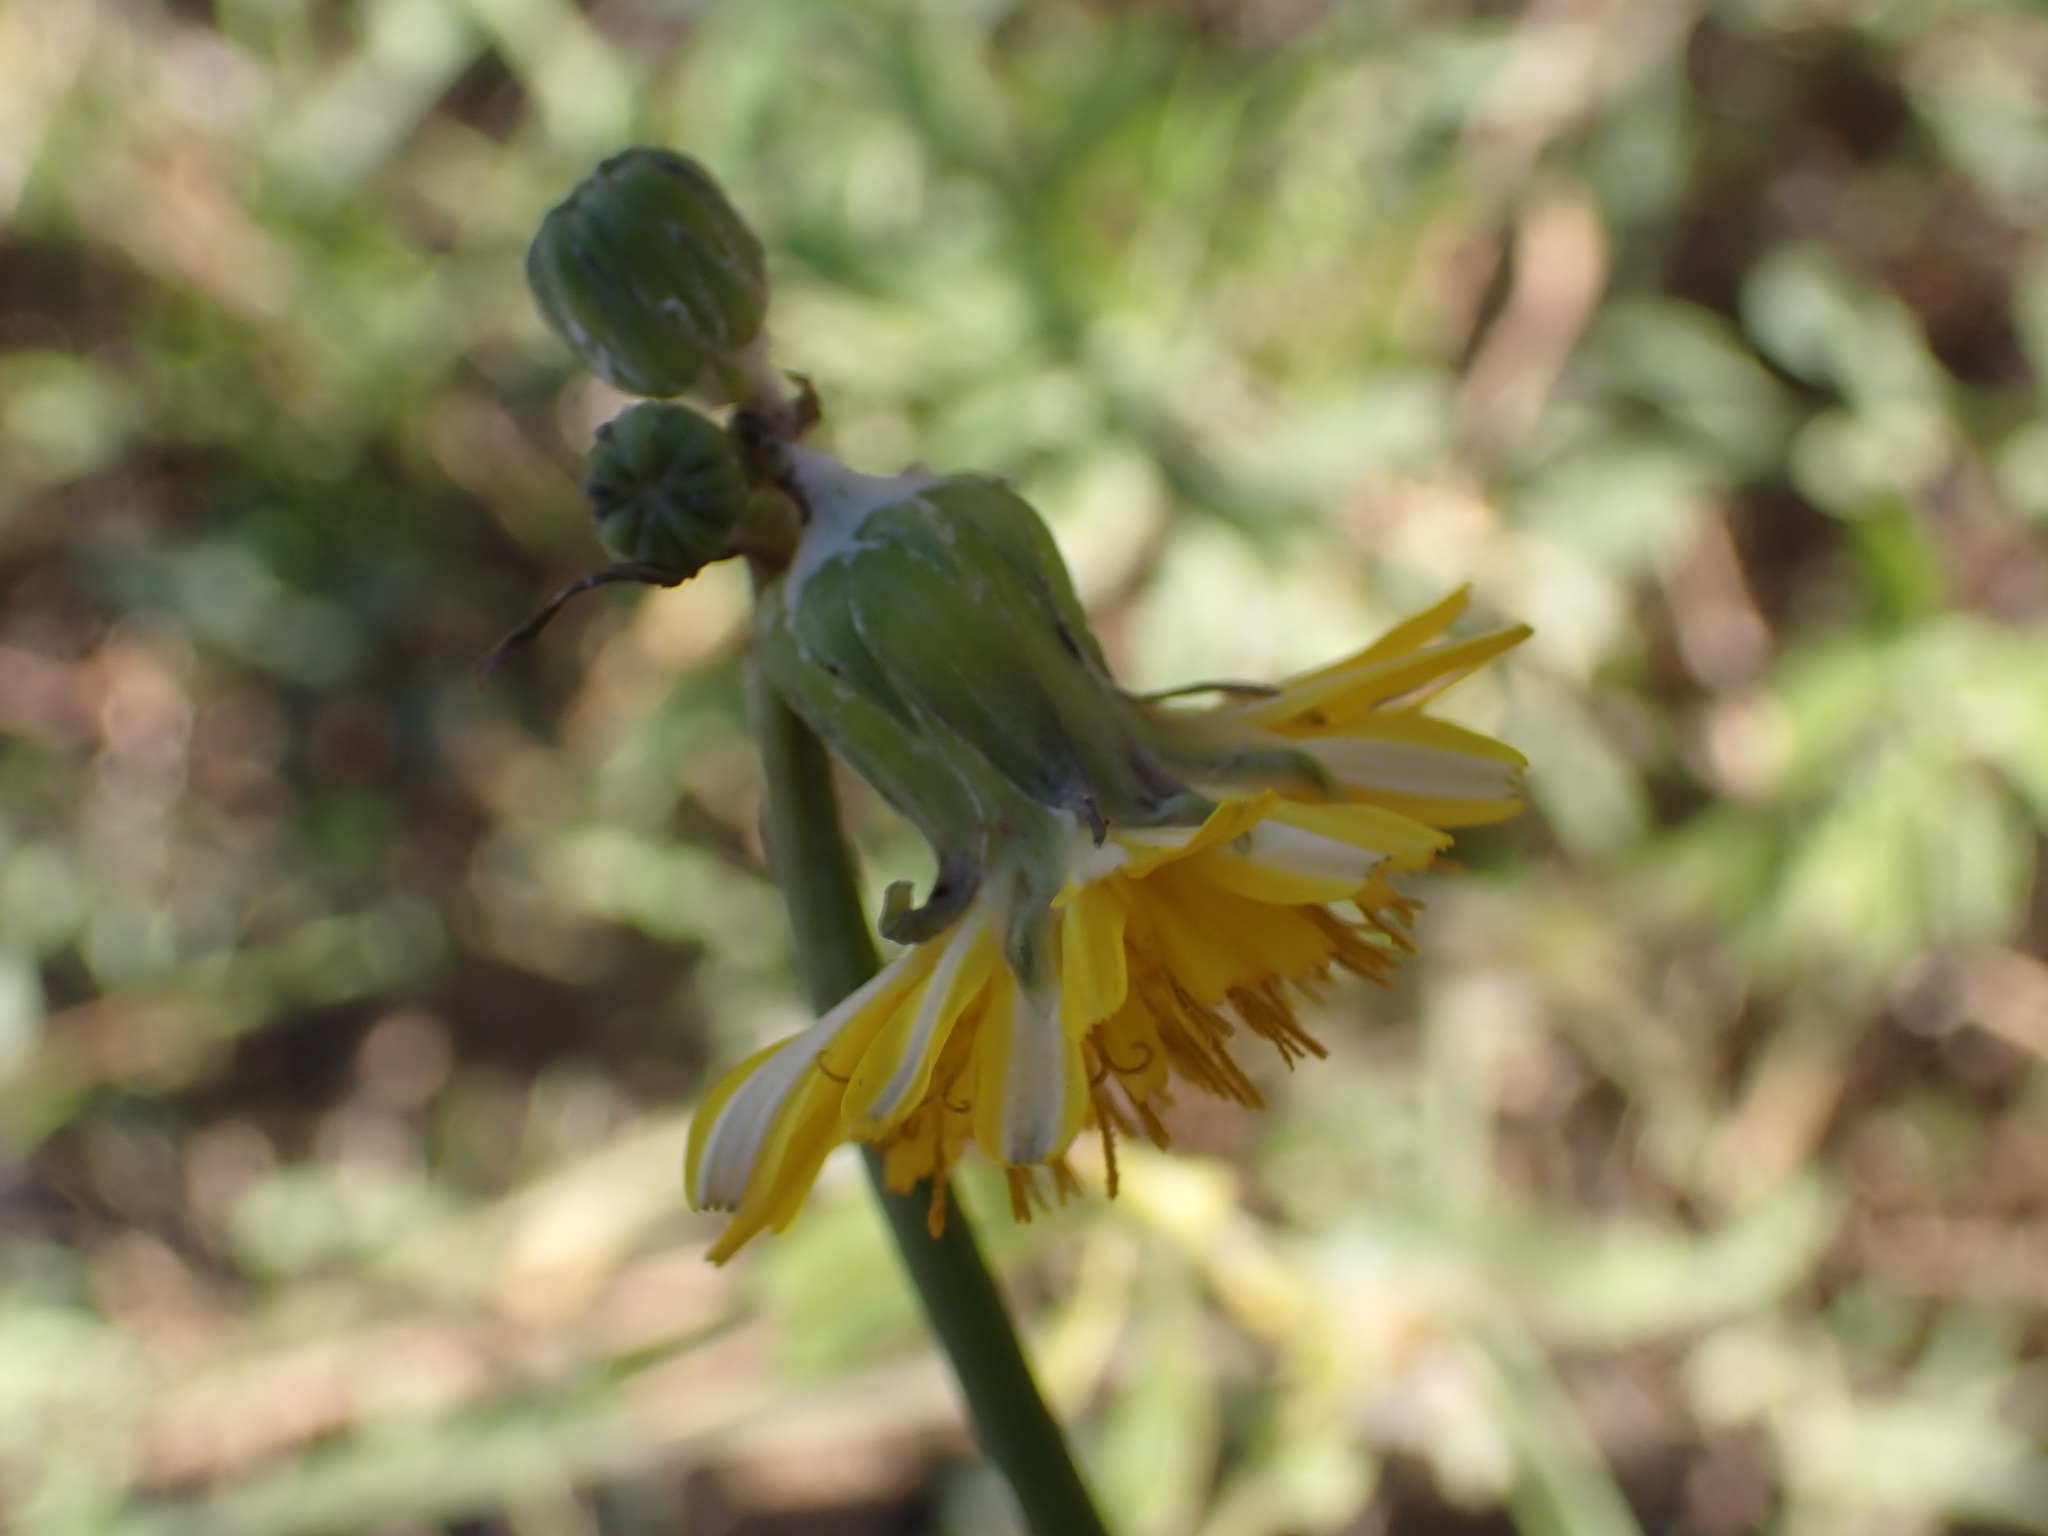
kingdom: Plantae
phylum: Tracheophyta
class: Magnoliopsida
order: Asterales
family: Asteraceae
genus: Sonchus
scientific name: Sonchus tenerrimus
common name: Clammy sowthistle
